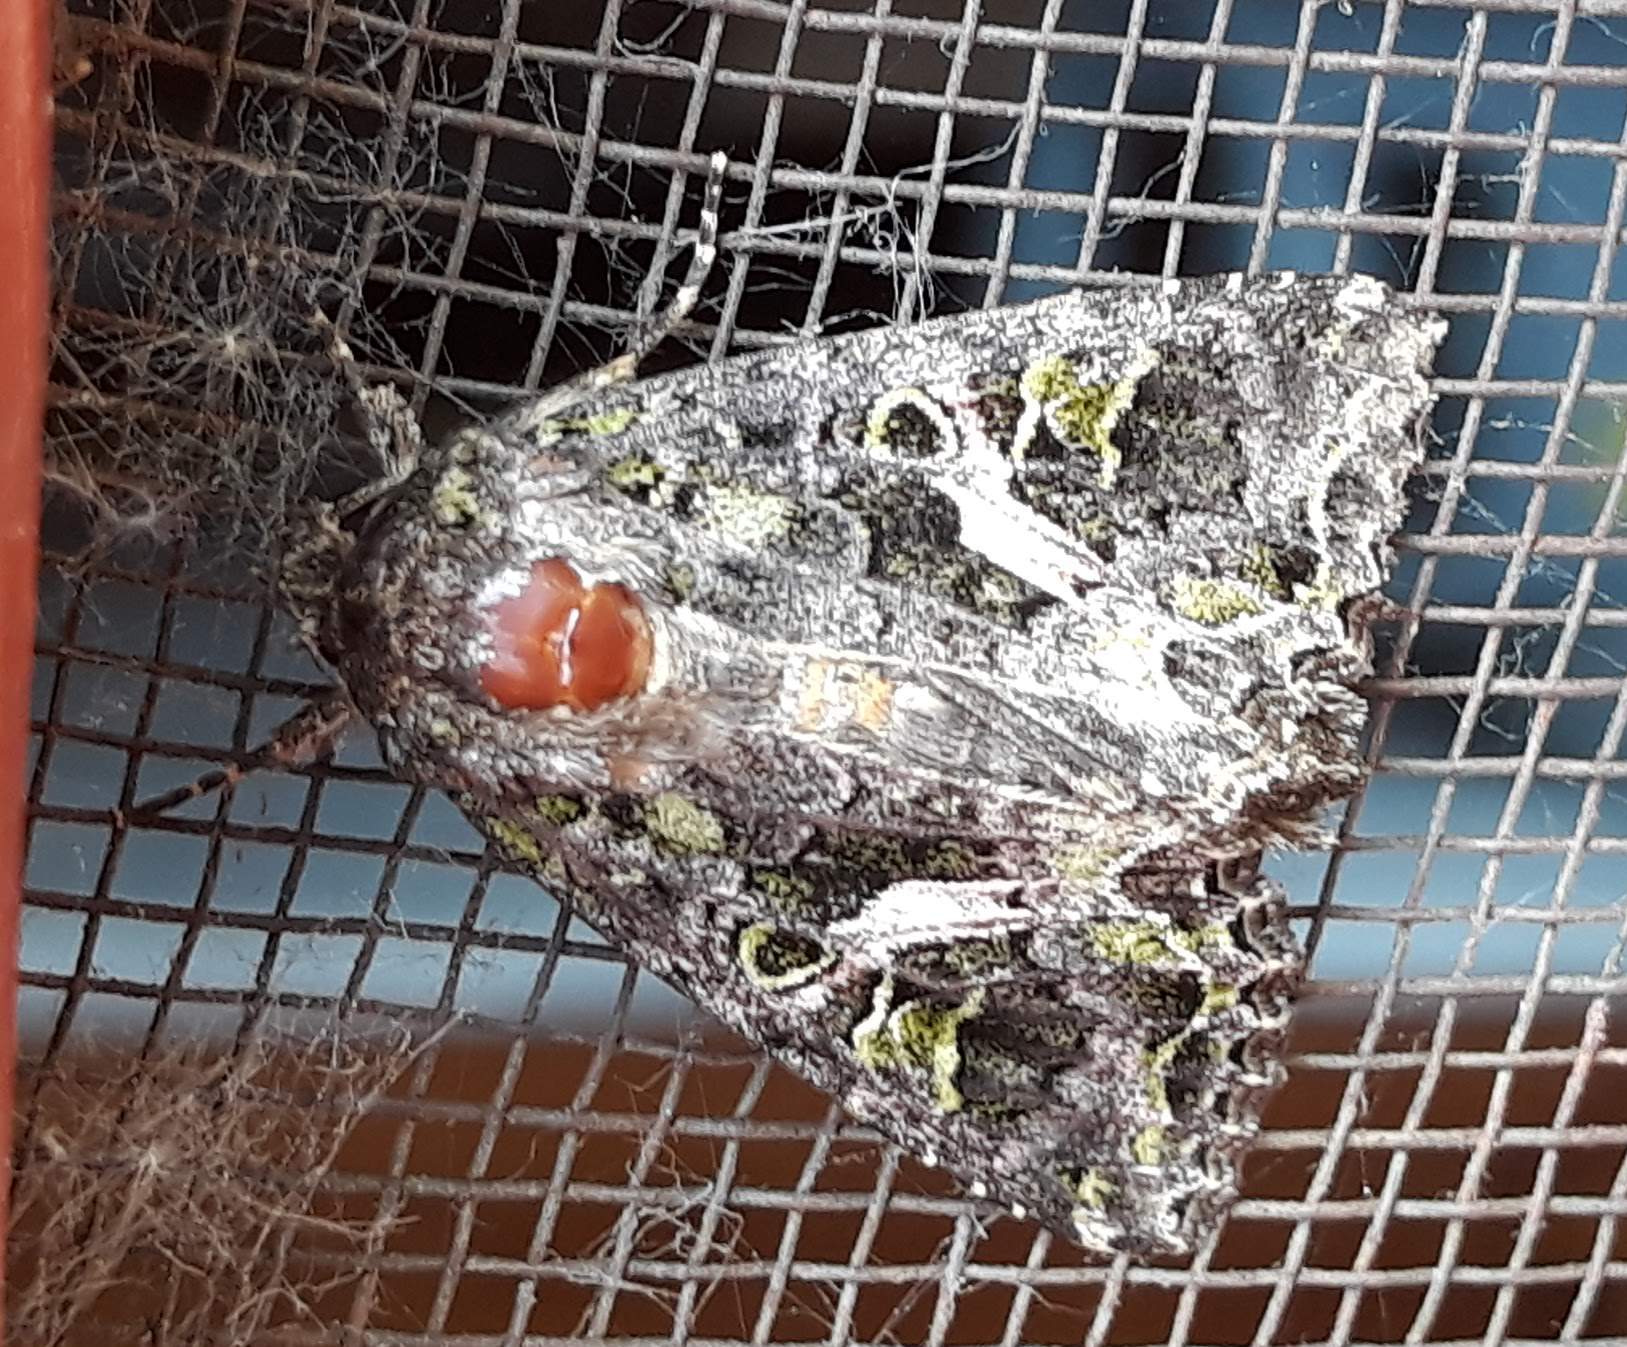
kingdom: Animalia
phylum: Arthropoda
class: Insecta
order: Lepidoptera
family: Noctuidae
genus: Trachea
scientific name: Trachea atriplicis
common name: Orache moth
